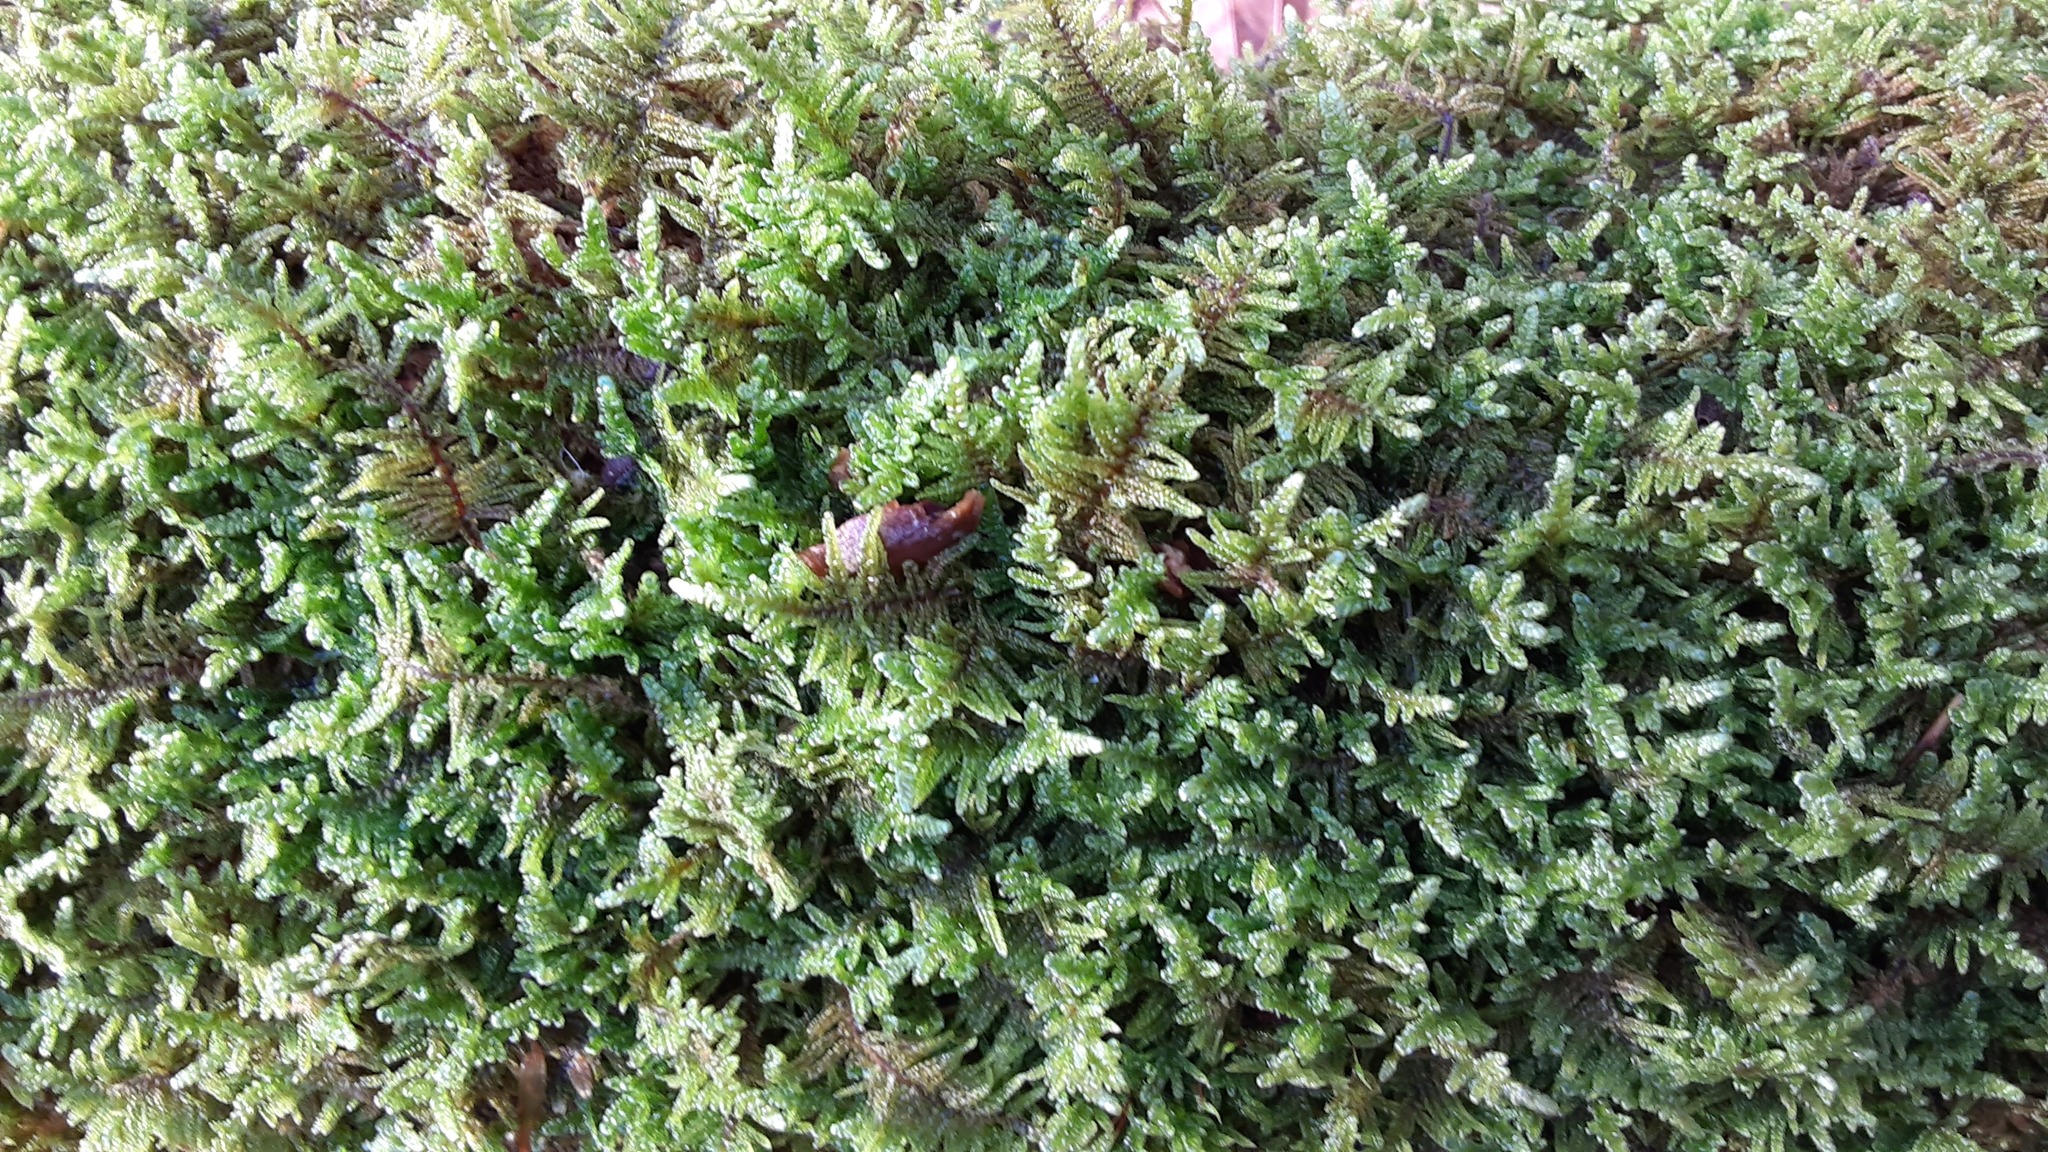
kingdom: Plantae
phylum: Bryophyta
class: Bryopsida
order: Hypnales
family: Callicladiaceae
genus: Callicladium
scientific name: Callicladium imponens
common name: Brocade moss
